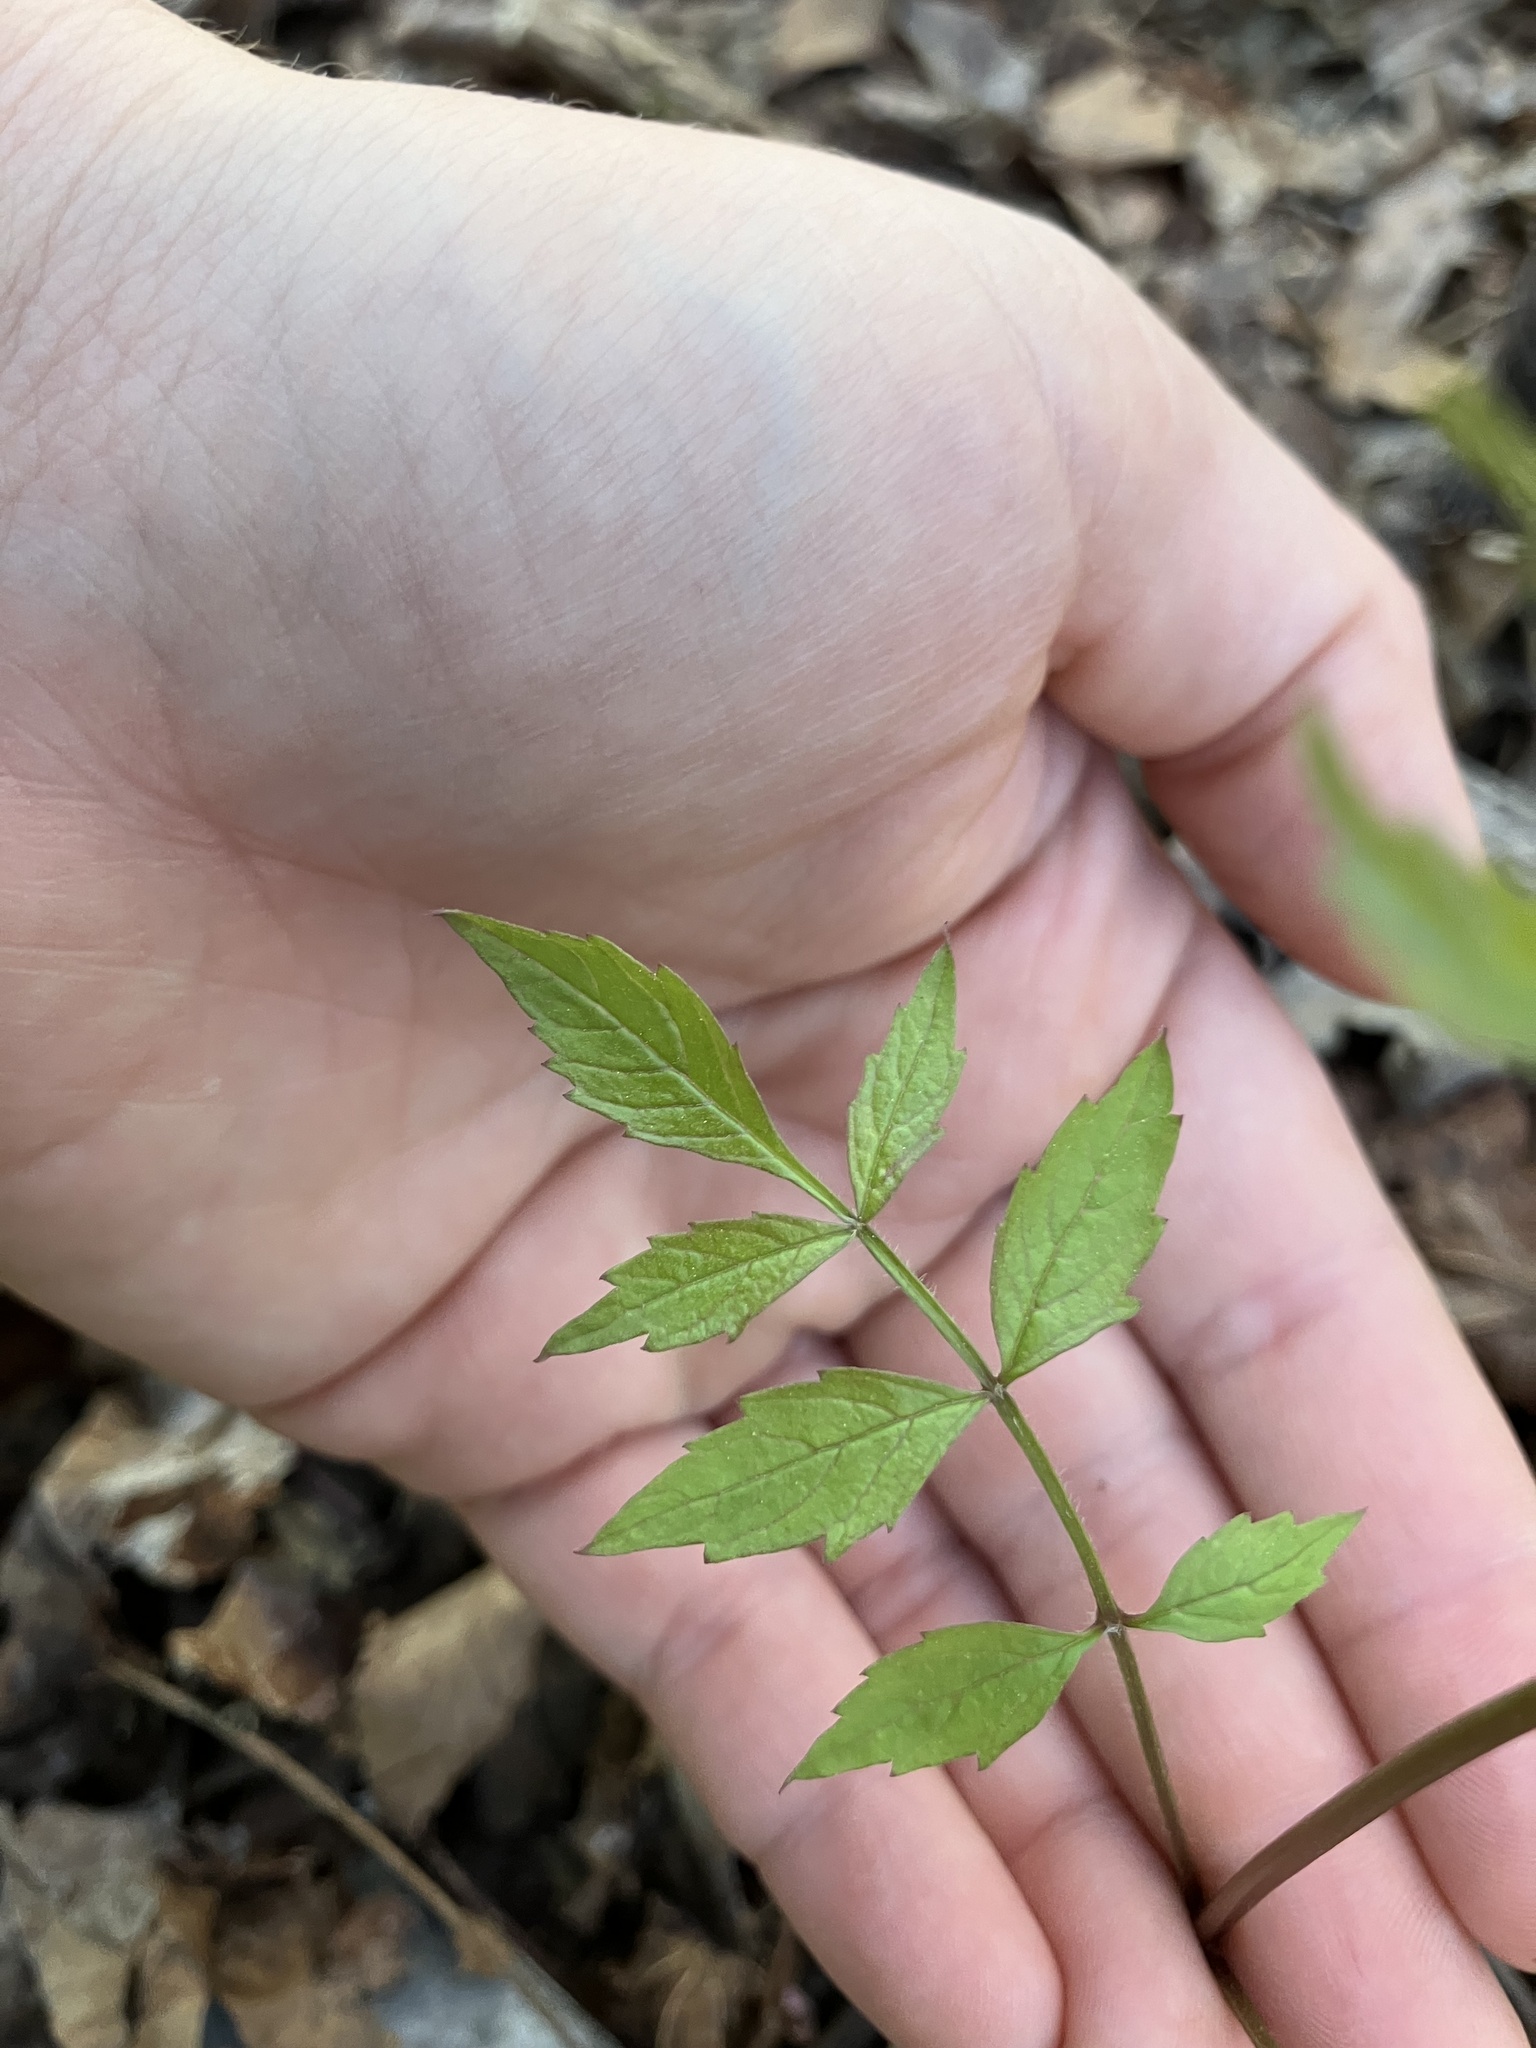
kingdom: Plantae
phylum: Tracheophyta
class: Magnoliopsida
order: Lamiales
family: Bignoniaceae
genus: Campsis
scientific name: Campsis radicans
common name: Trumpet-creeper
